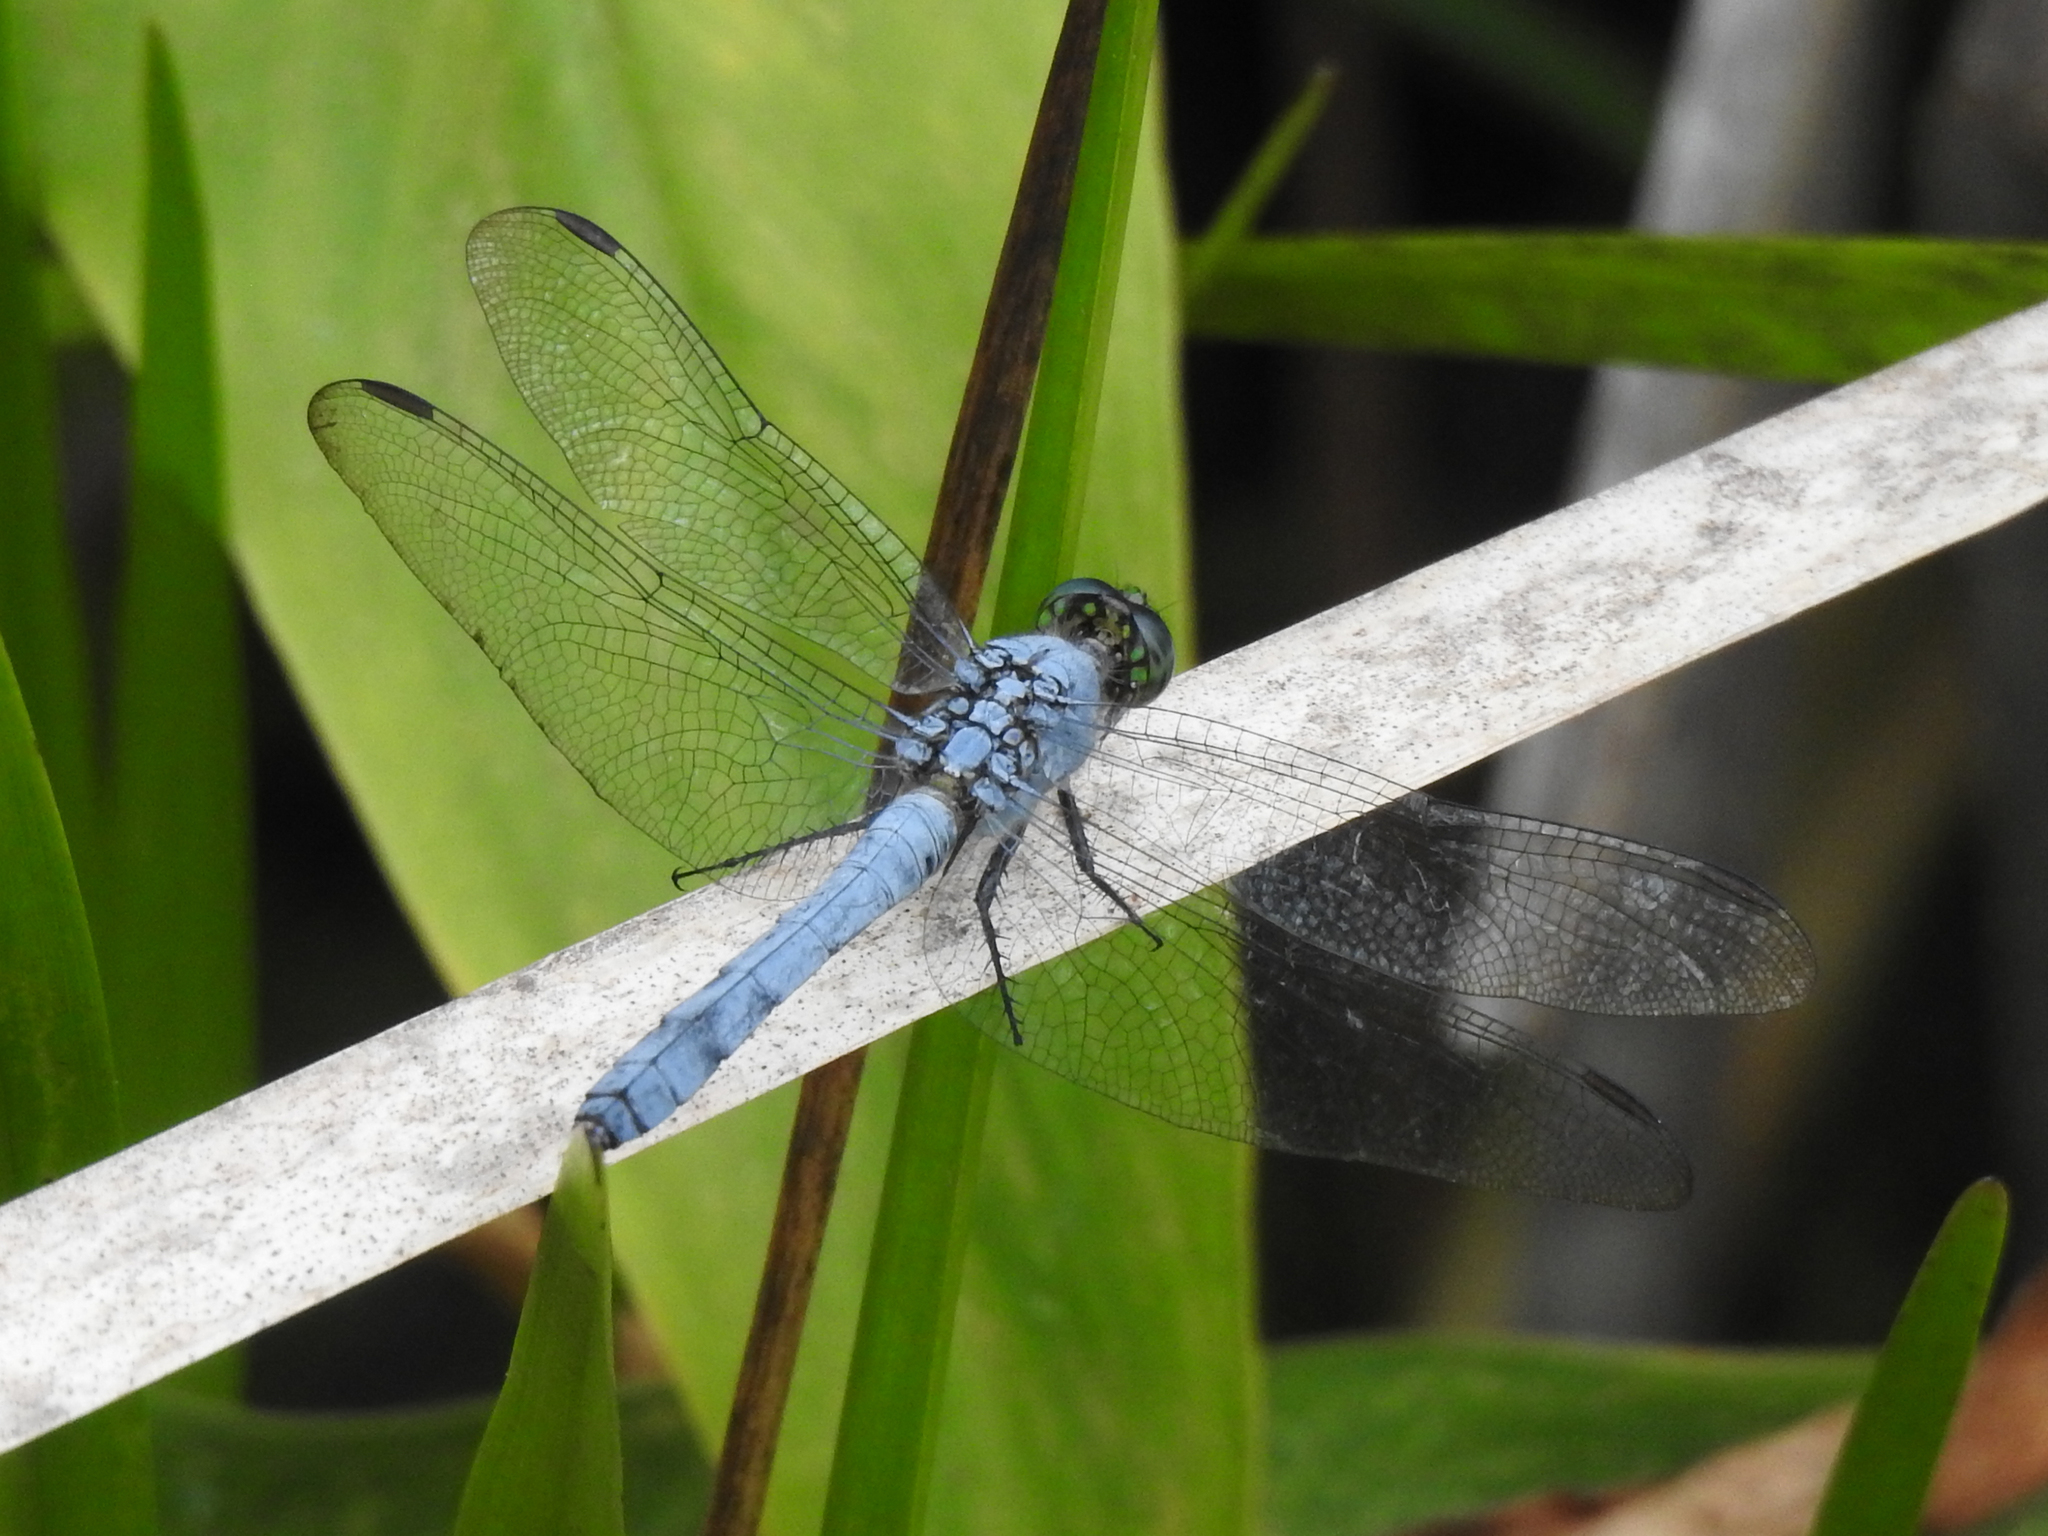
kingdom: Animalia
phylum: Arthropoda
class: Insecta
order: Odonata
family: Libellulidae
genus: Erythemis
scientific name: Erythemis simplicicollis
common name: Eastern pondhawk
